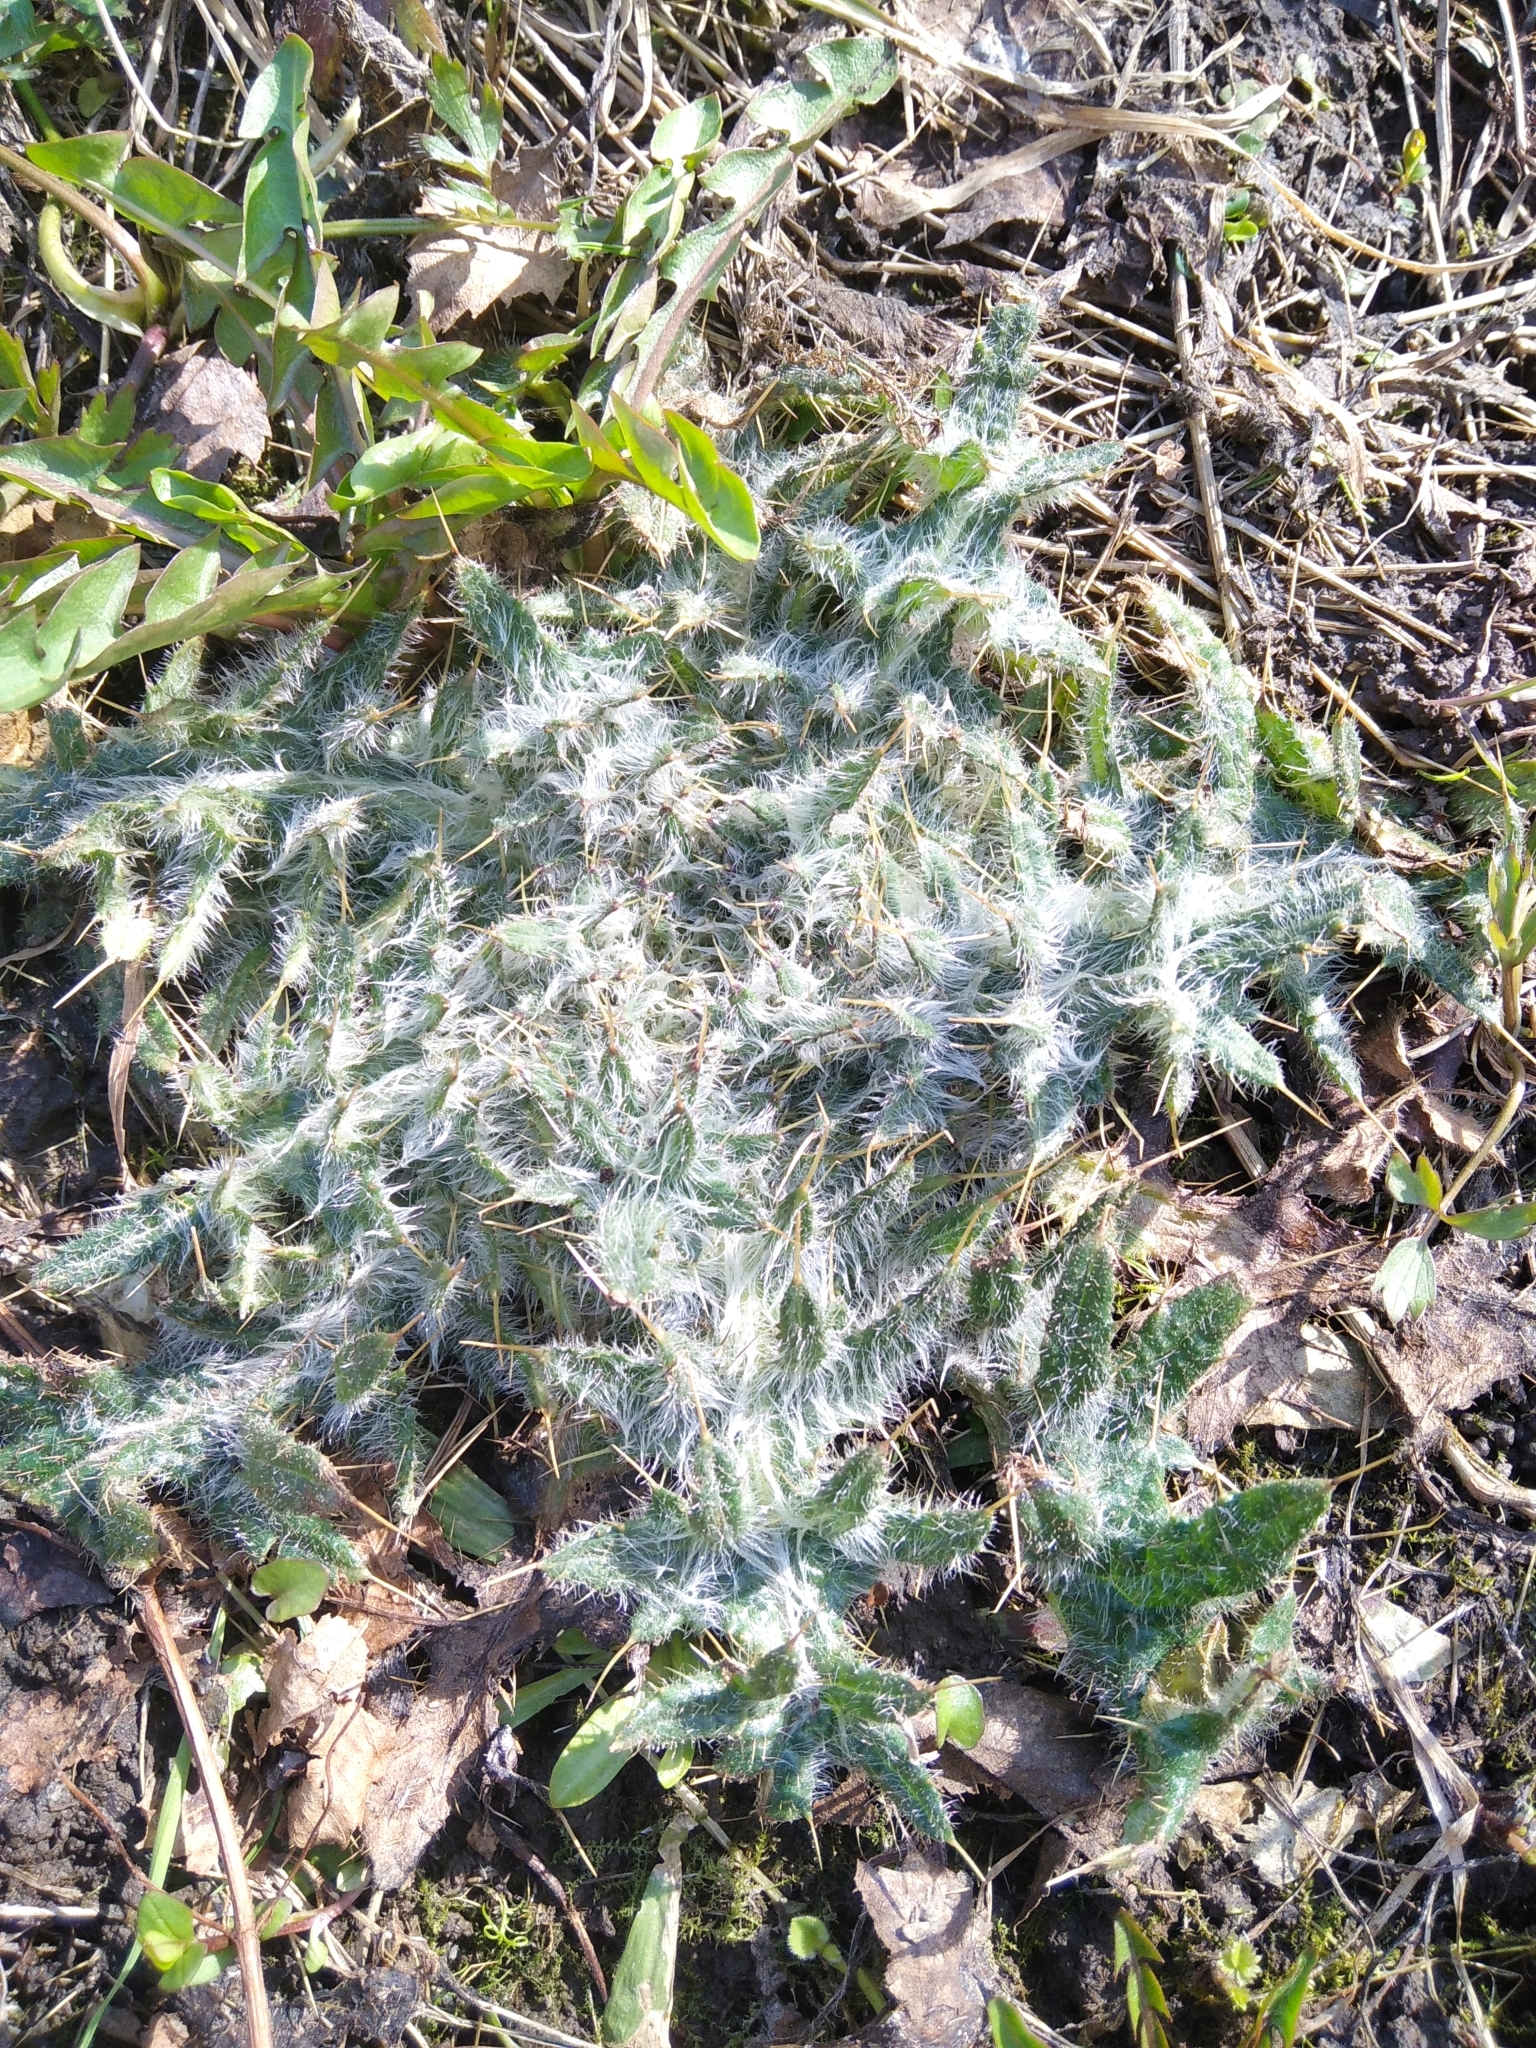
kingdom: Plantae
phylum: Tracheophyta
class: Magnoliopsida
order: Asterales
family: Asteraceae
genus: Cirsium
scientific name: Cirsium vulgare
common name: Bull thistle
